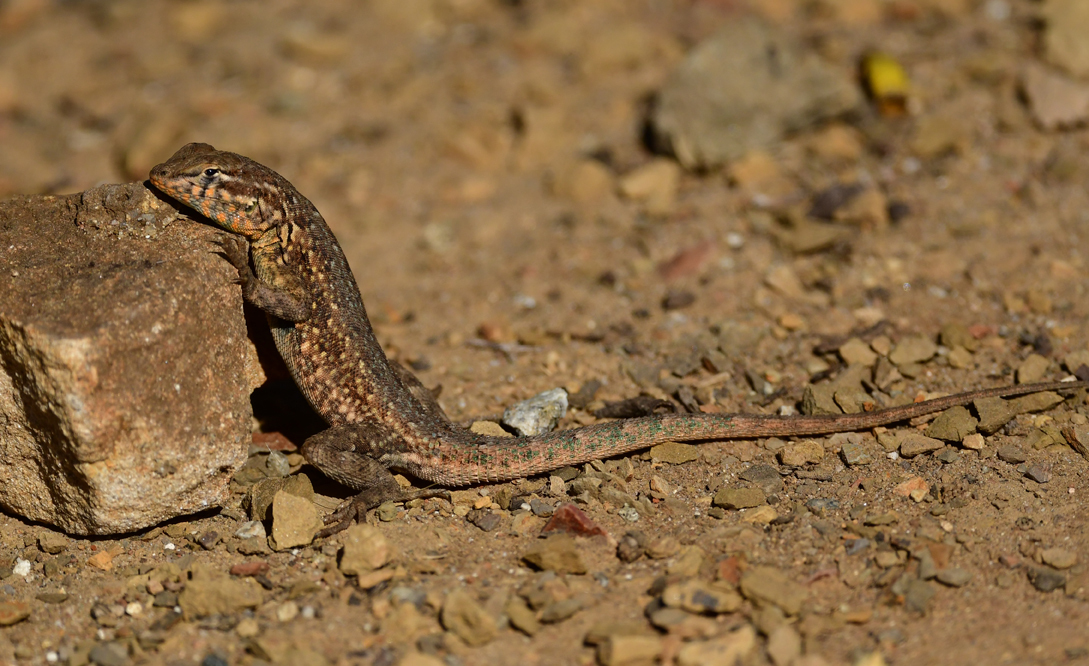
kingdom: Animalia
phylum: Chordata
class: Squamata
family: Phrynosomatidae
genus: Uta
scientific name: Uta stansburiana
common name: Side-blotched lizard
